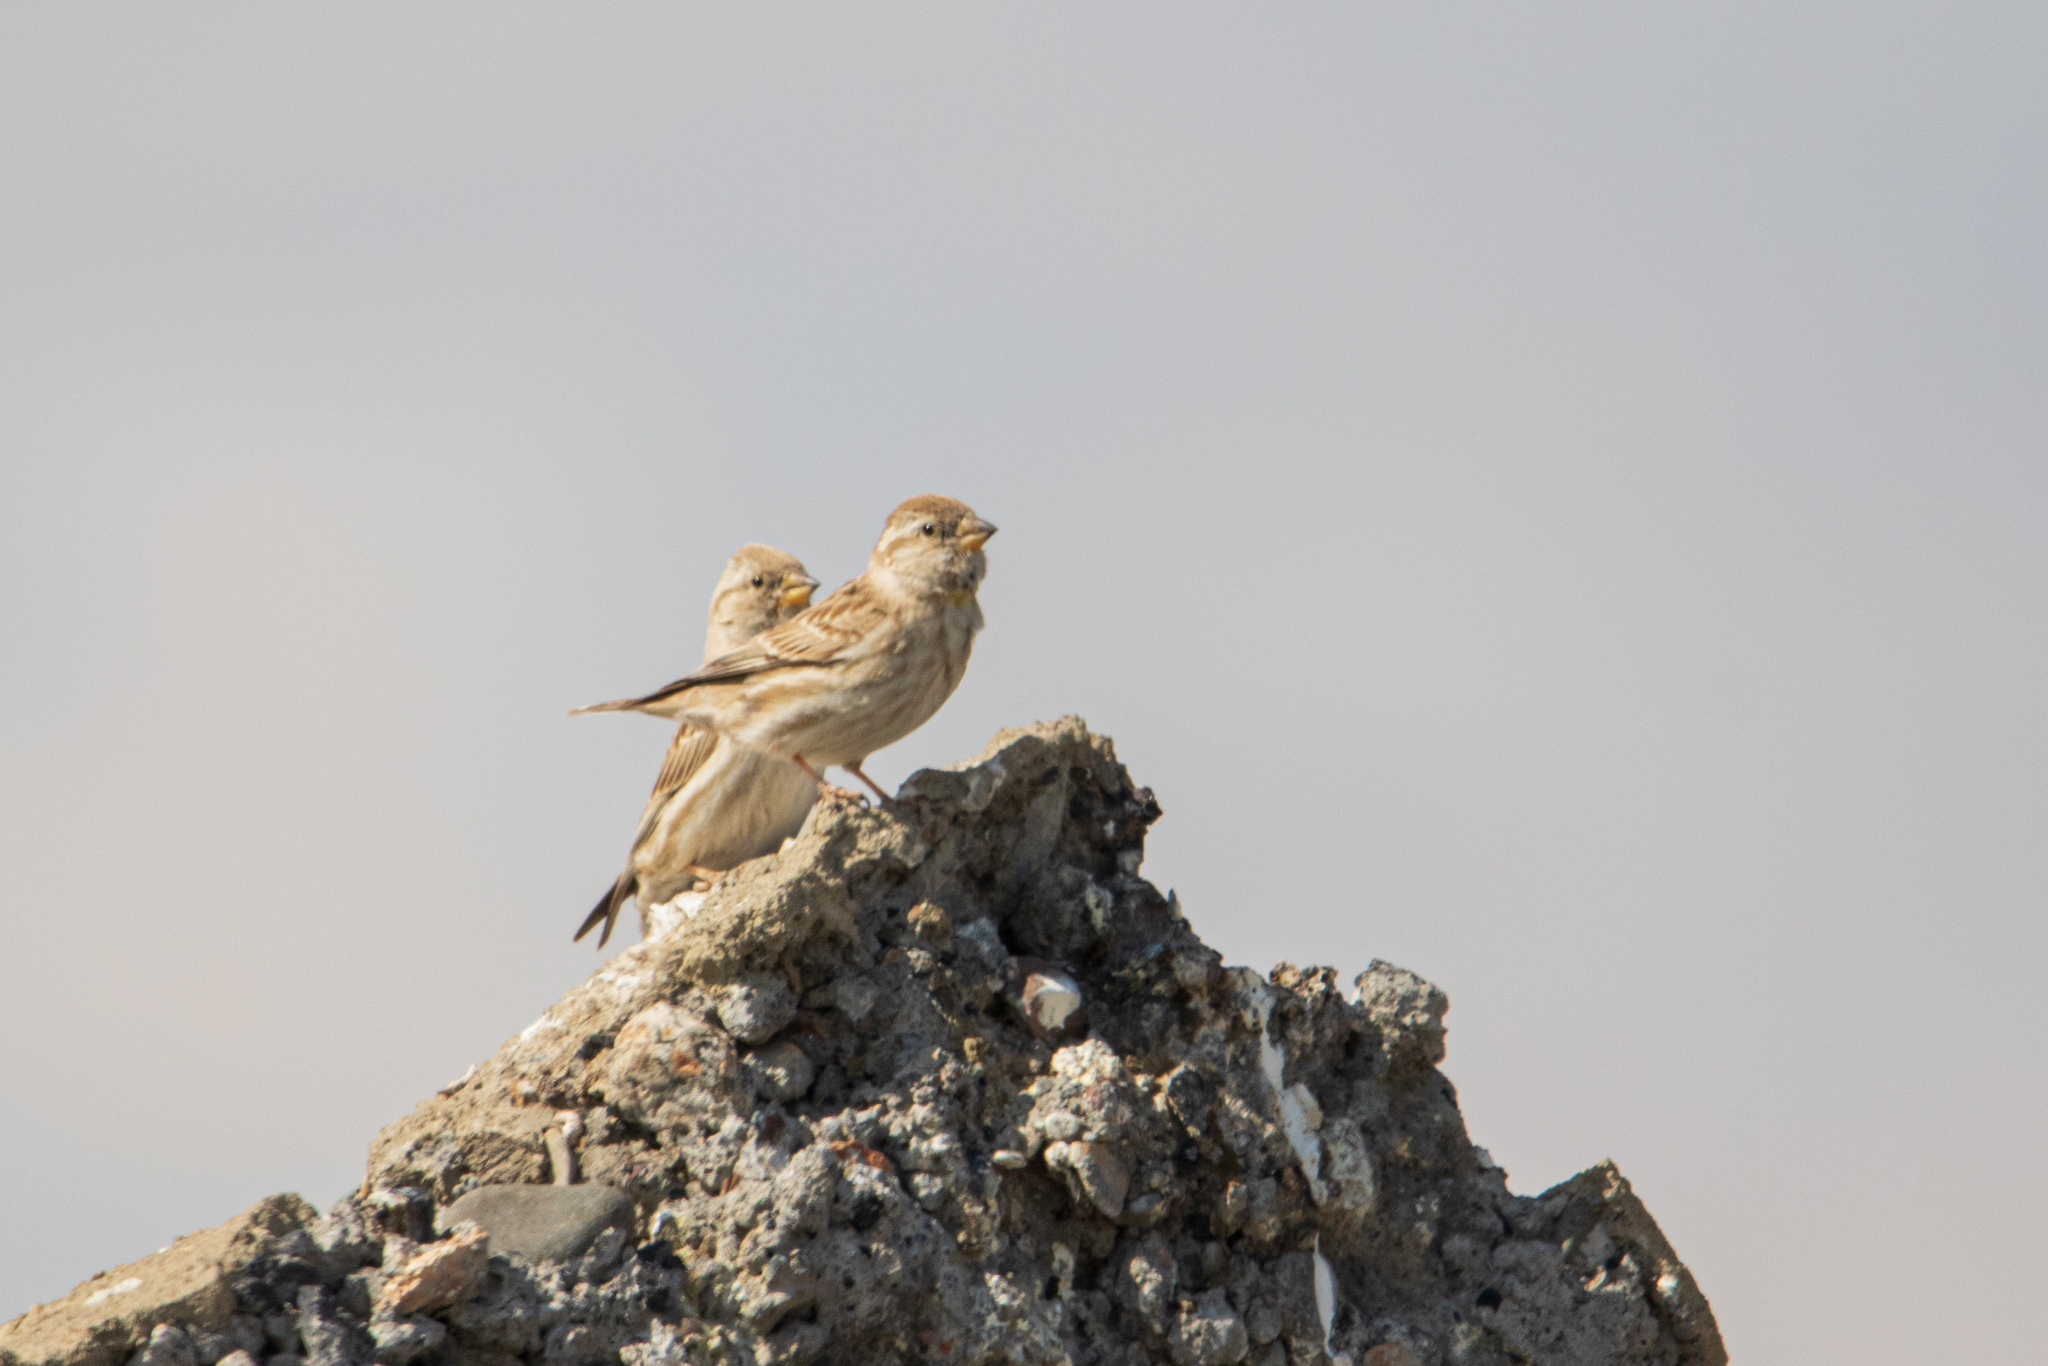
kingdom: Animalia
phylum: Chordata
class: Aves
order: Passeriformes
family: Passeridae
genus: Petronia
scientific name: Petronia petronia
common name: Rock sparrow
